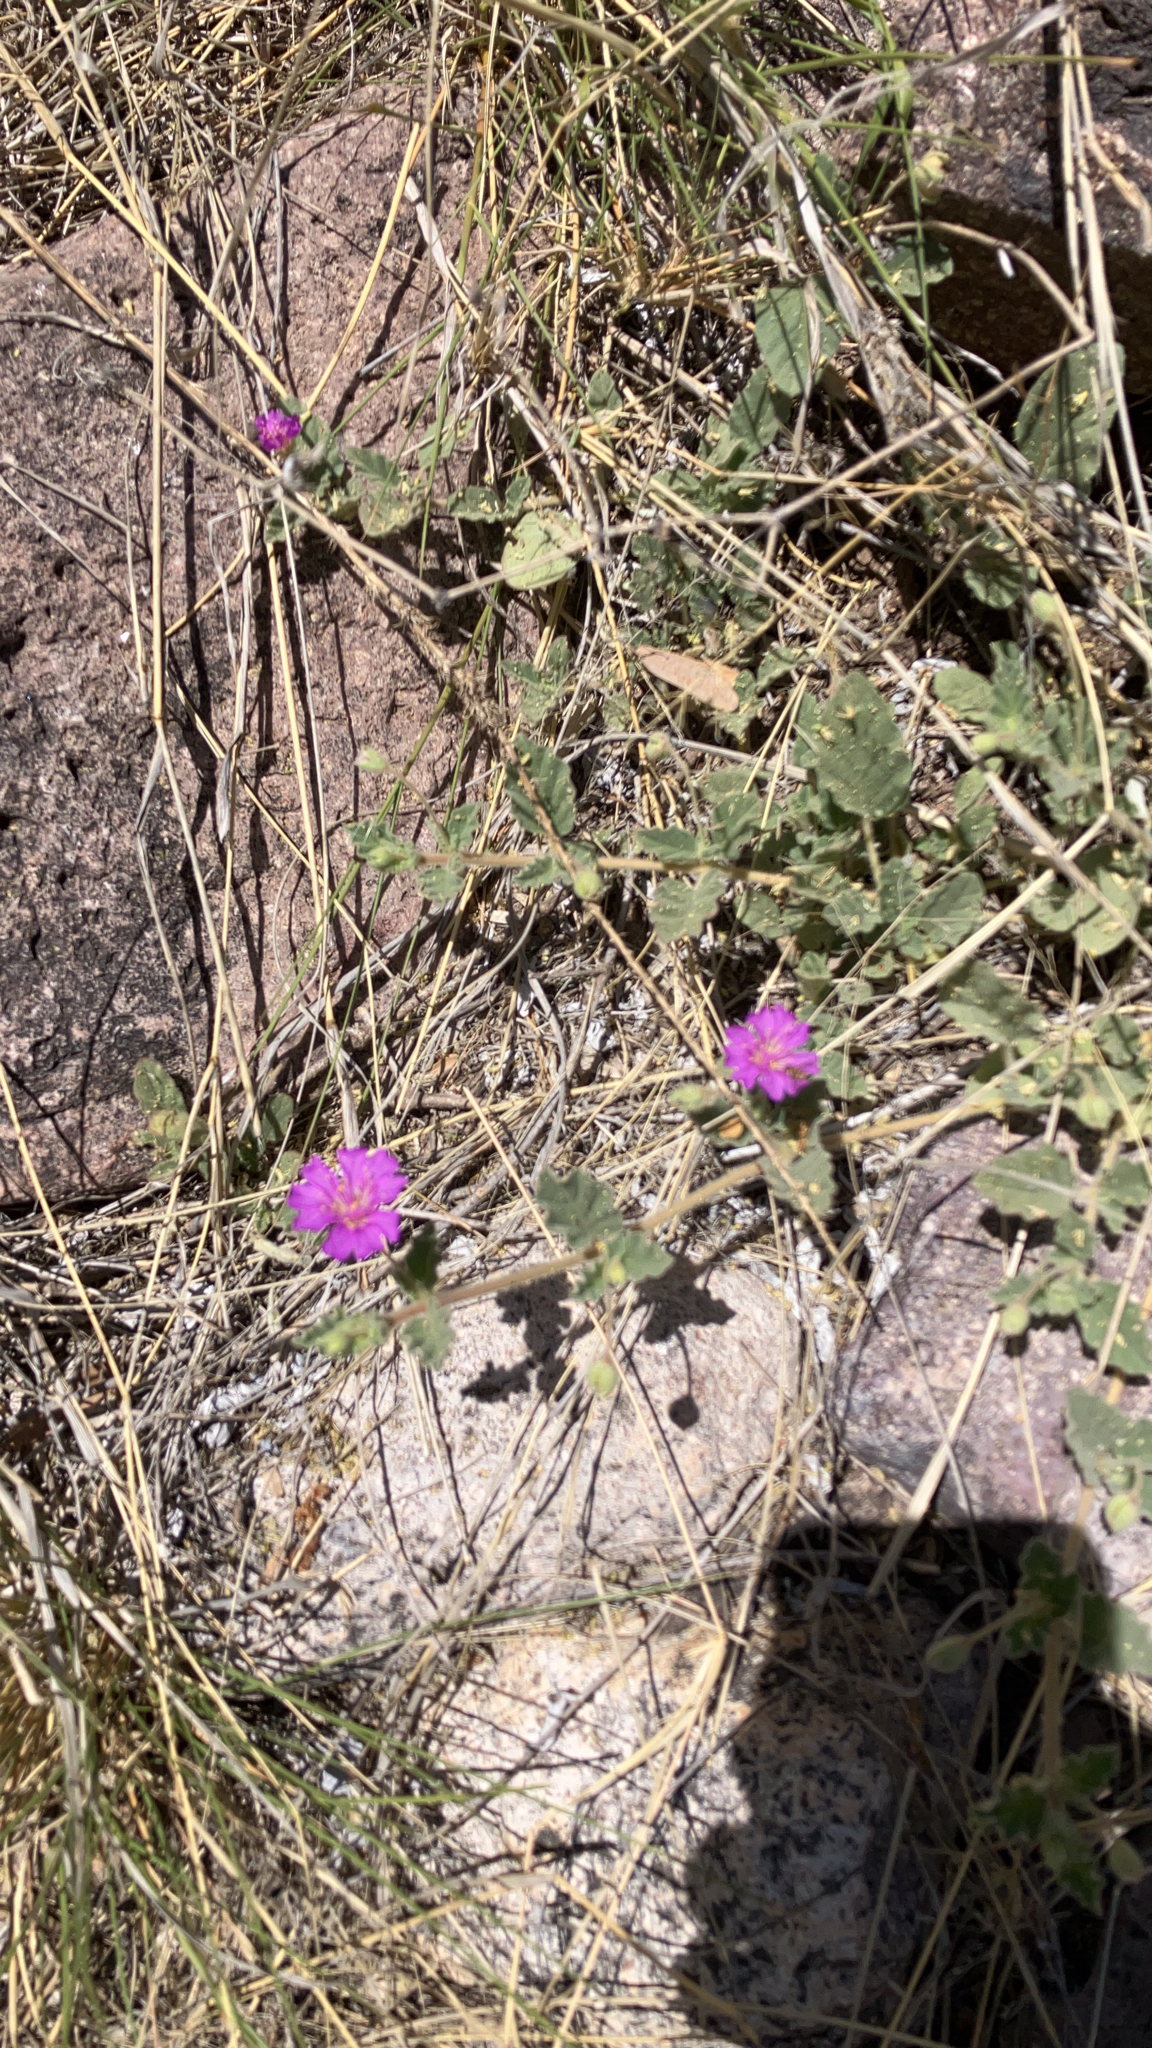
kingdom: Plantae
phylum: Tracheophyta
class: Magnoliopsida
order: Caryophyllales
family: Nyctaginaceae
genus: Allionia
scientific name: Allionia incarnata
